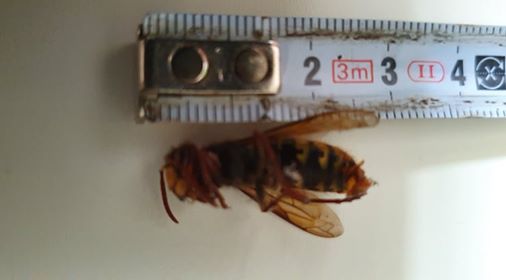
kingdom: Animalia
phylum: Arthropoda
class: Insecta
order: Hymenoptera
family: Vespidae
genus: Vespa
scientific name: Vespa crabro
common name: Hornet
